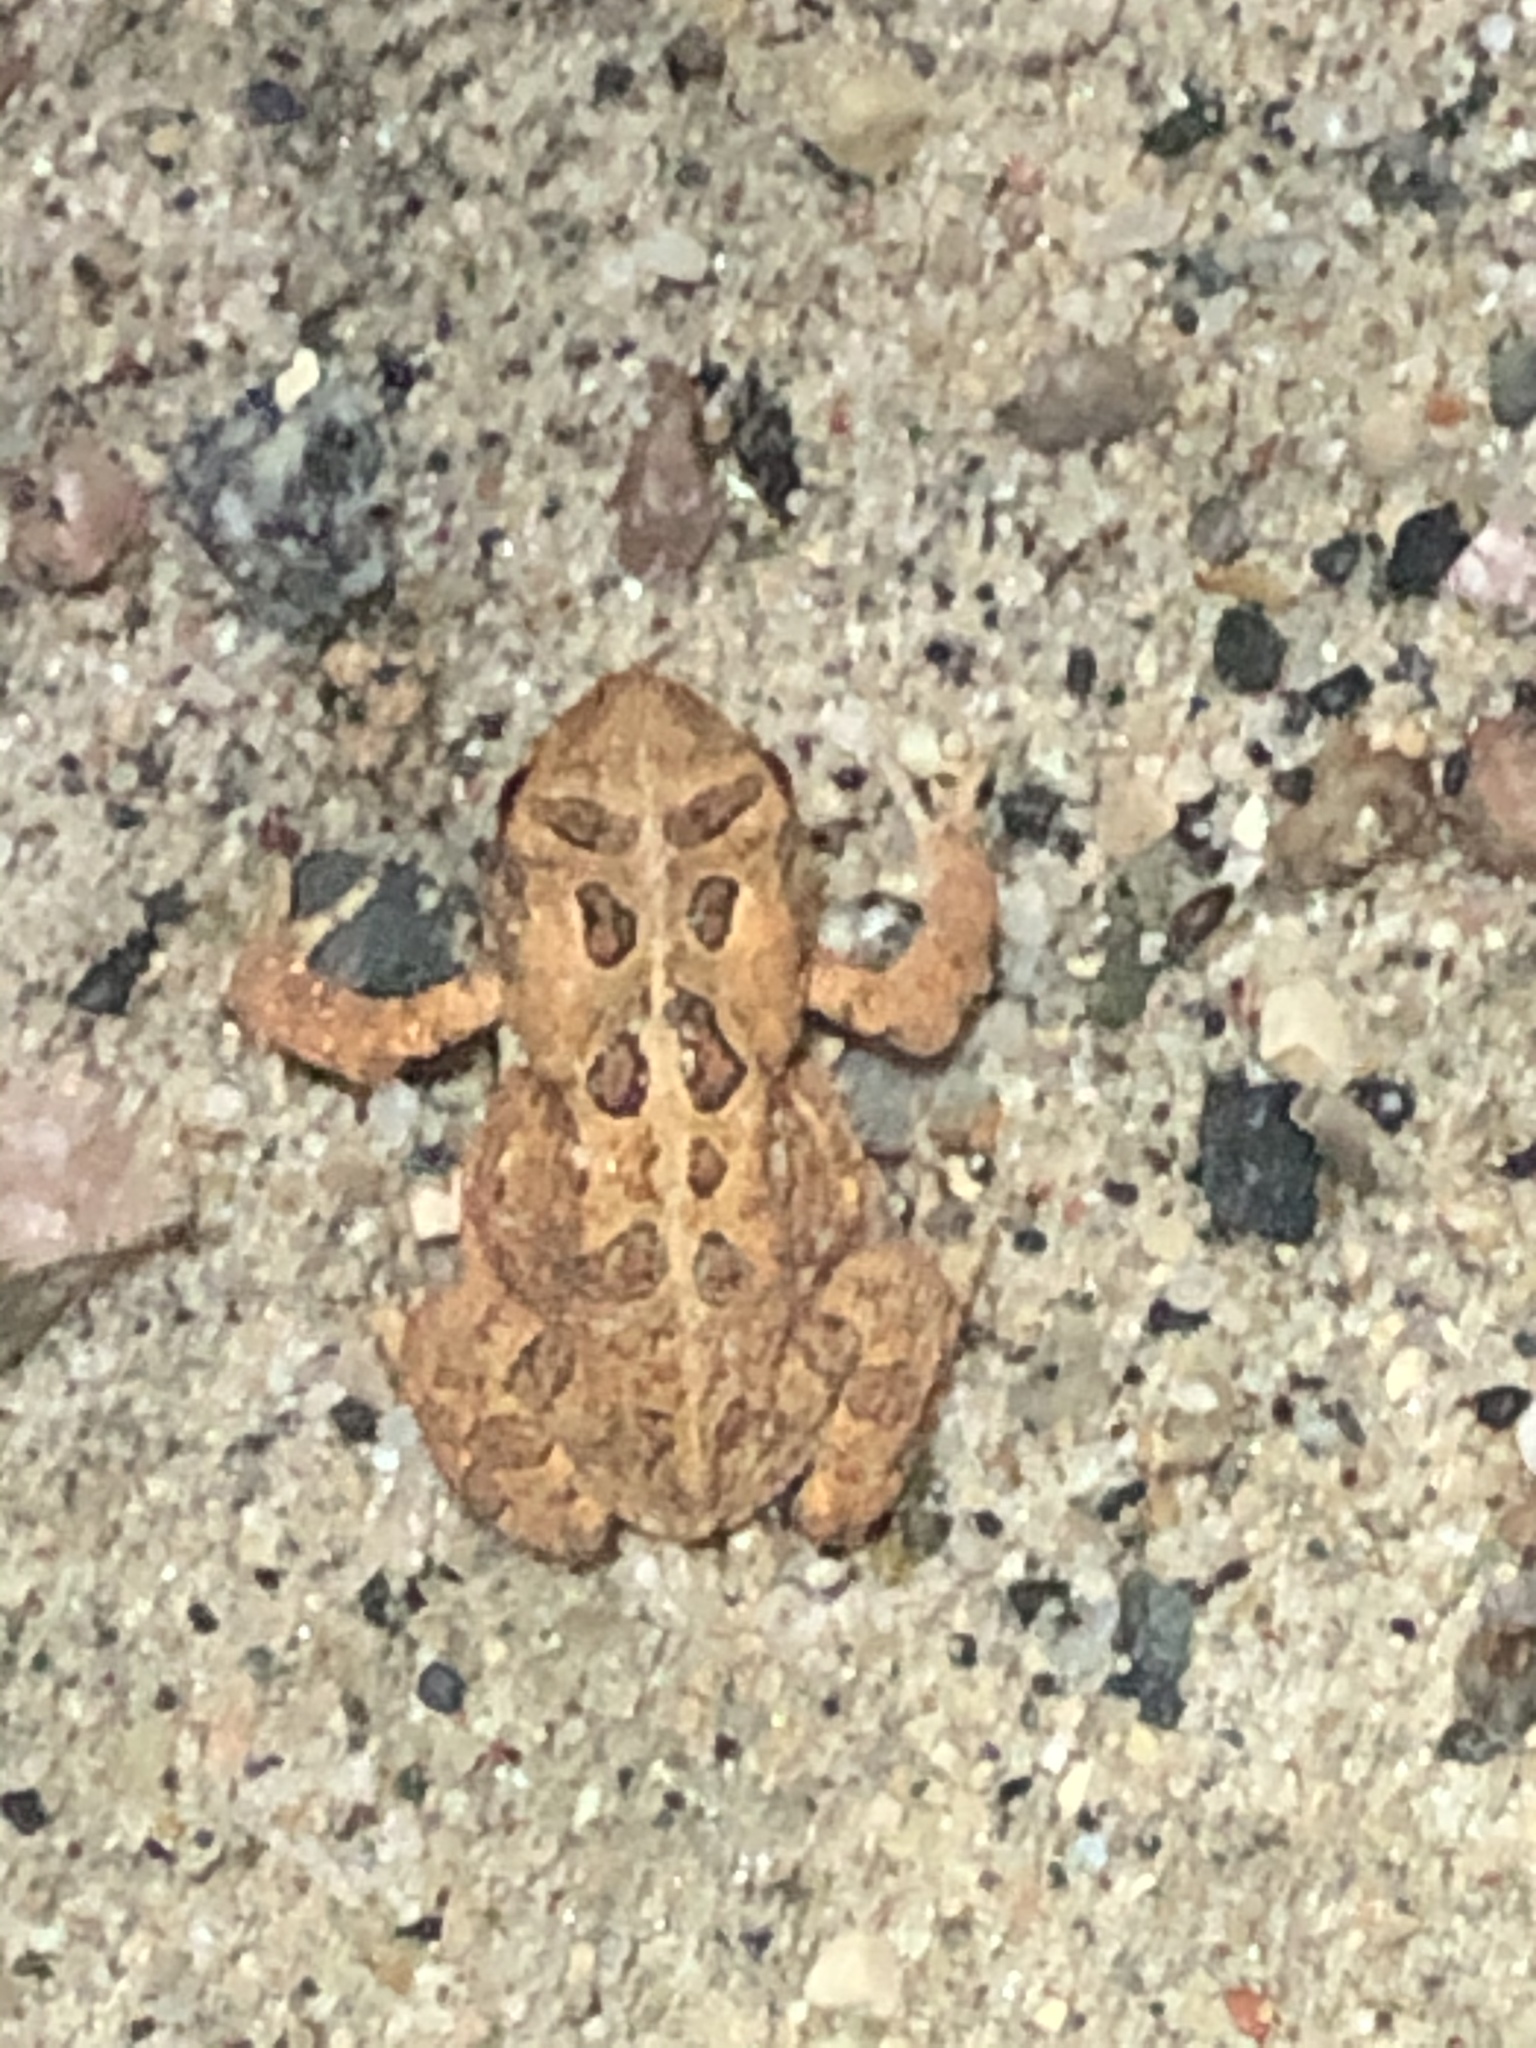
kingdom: Animalia
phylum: Chordata
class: Amphibia
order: Anura
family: Bufonidae
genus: Anaxyrus
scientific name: Anaxyrus americanus
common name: American toad
